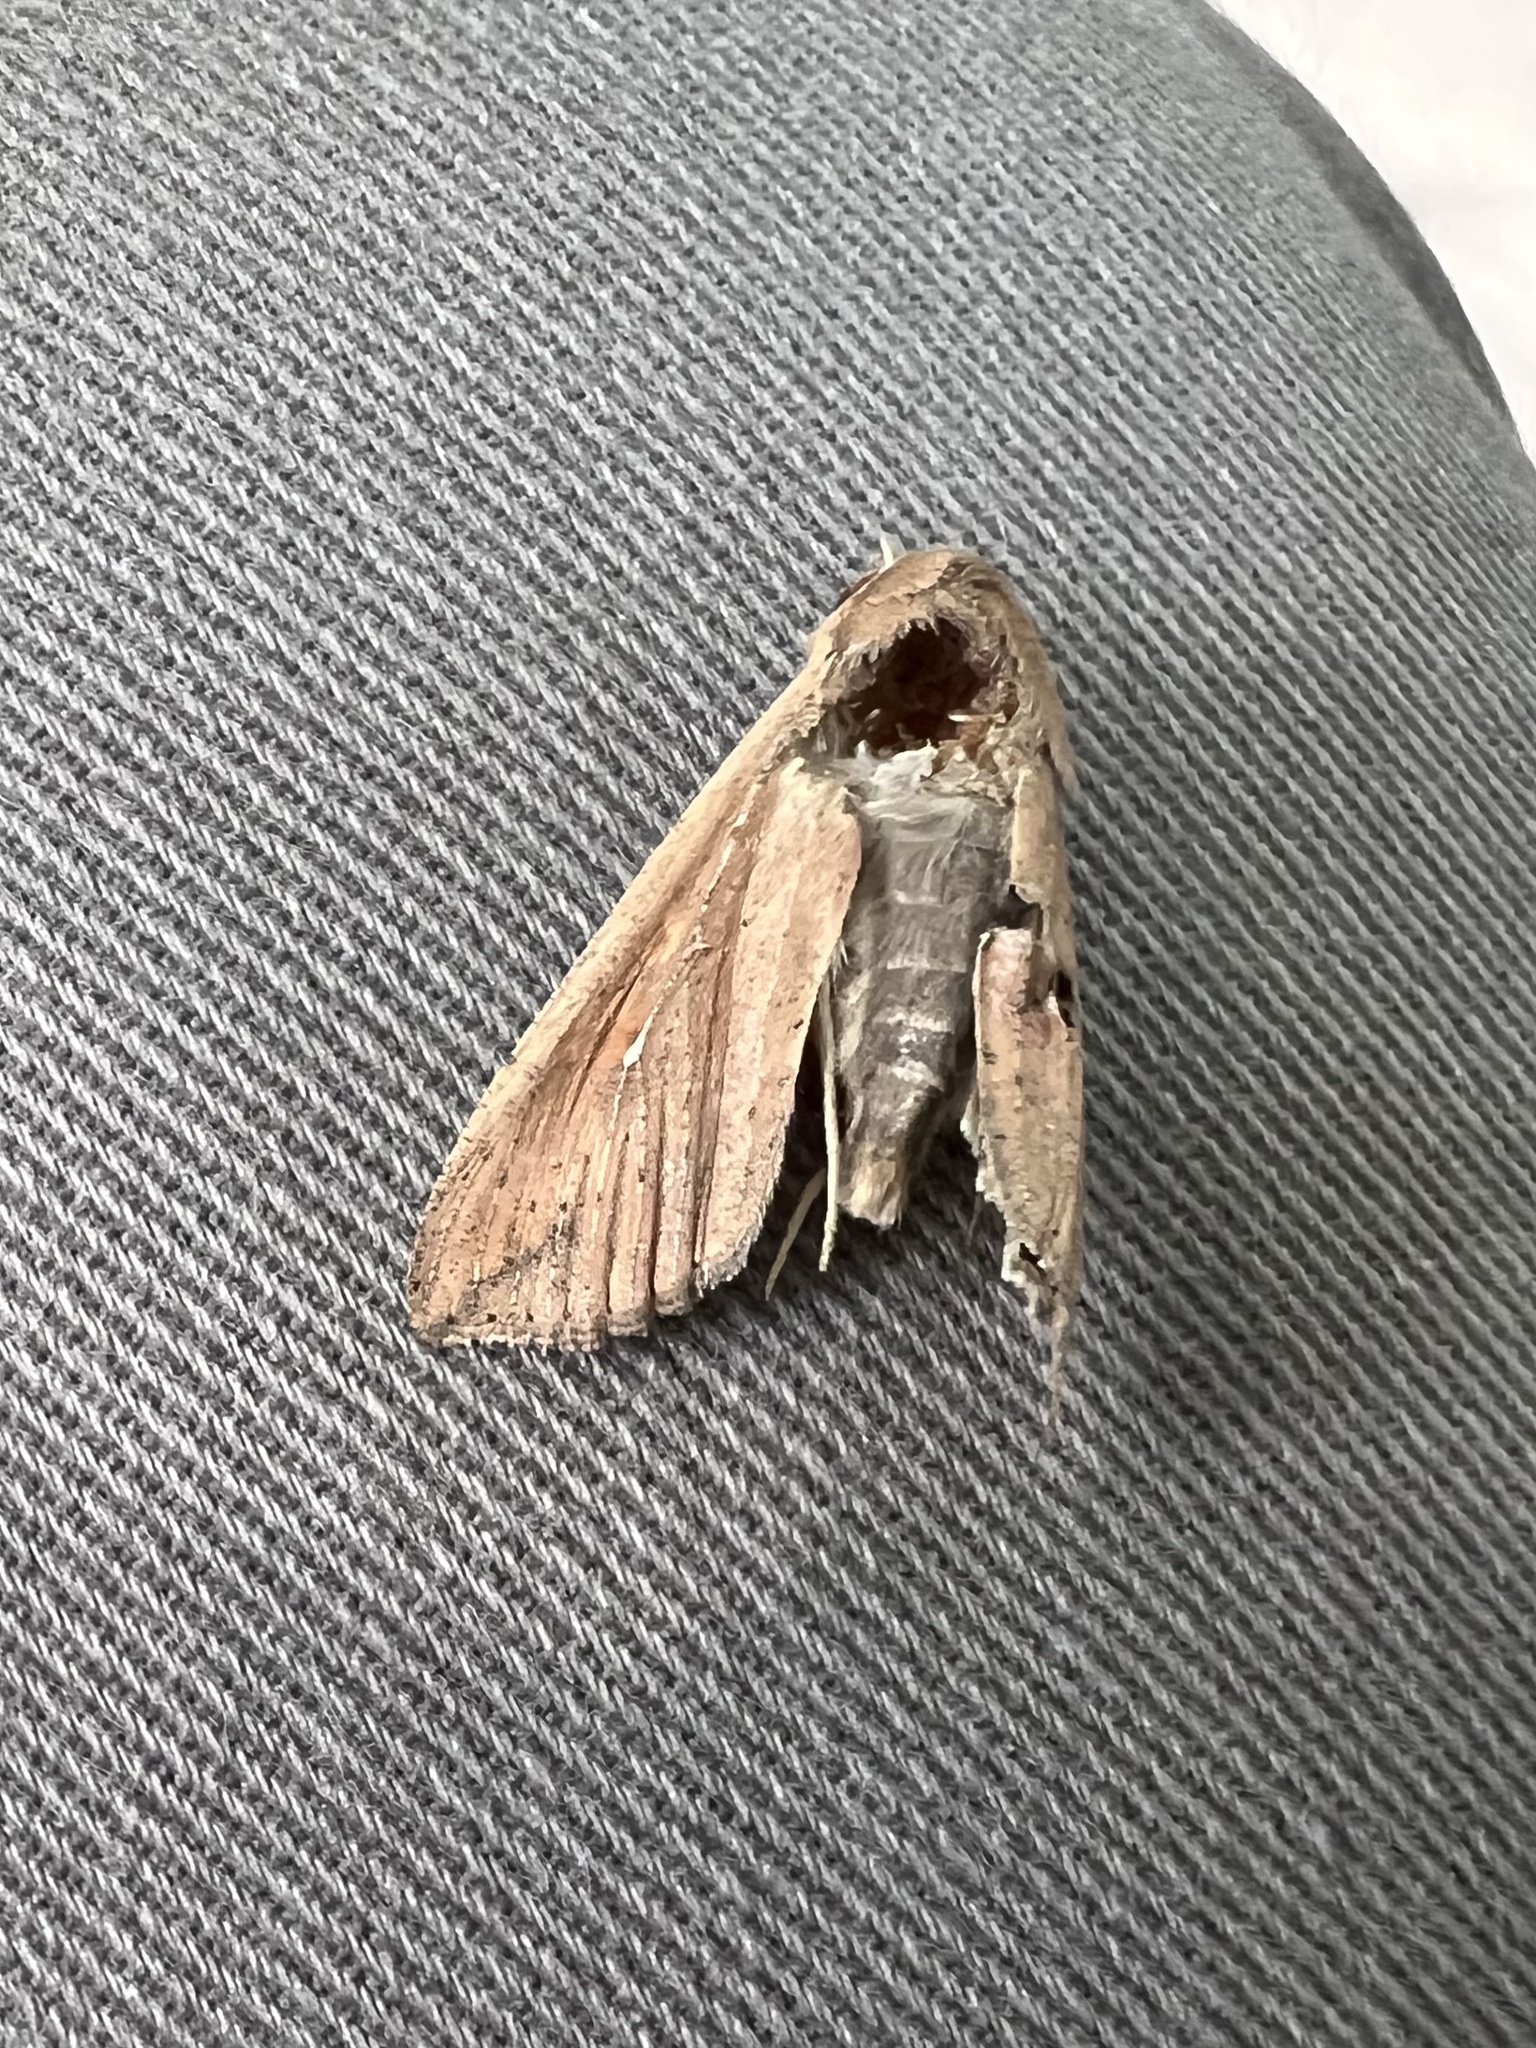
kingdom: Animalia
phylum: Arthropoda
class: Insecta
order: Lepidoptera
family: Noctuidae
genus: Mythimna
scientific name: Mythimna unipuncta
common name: White-speck
